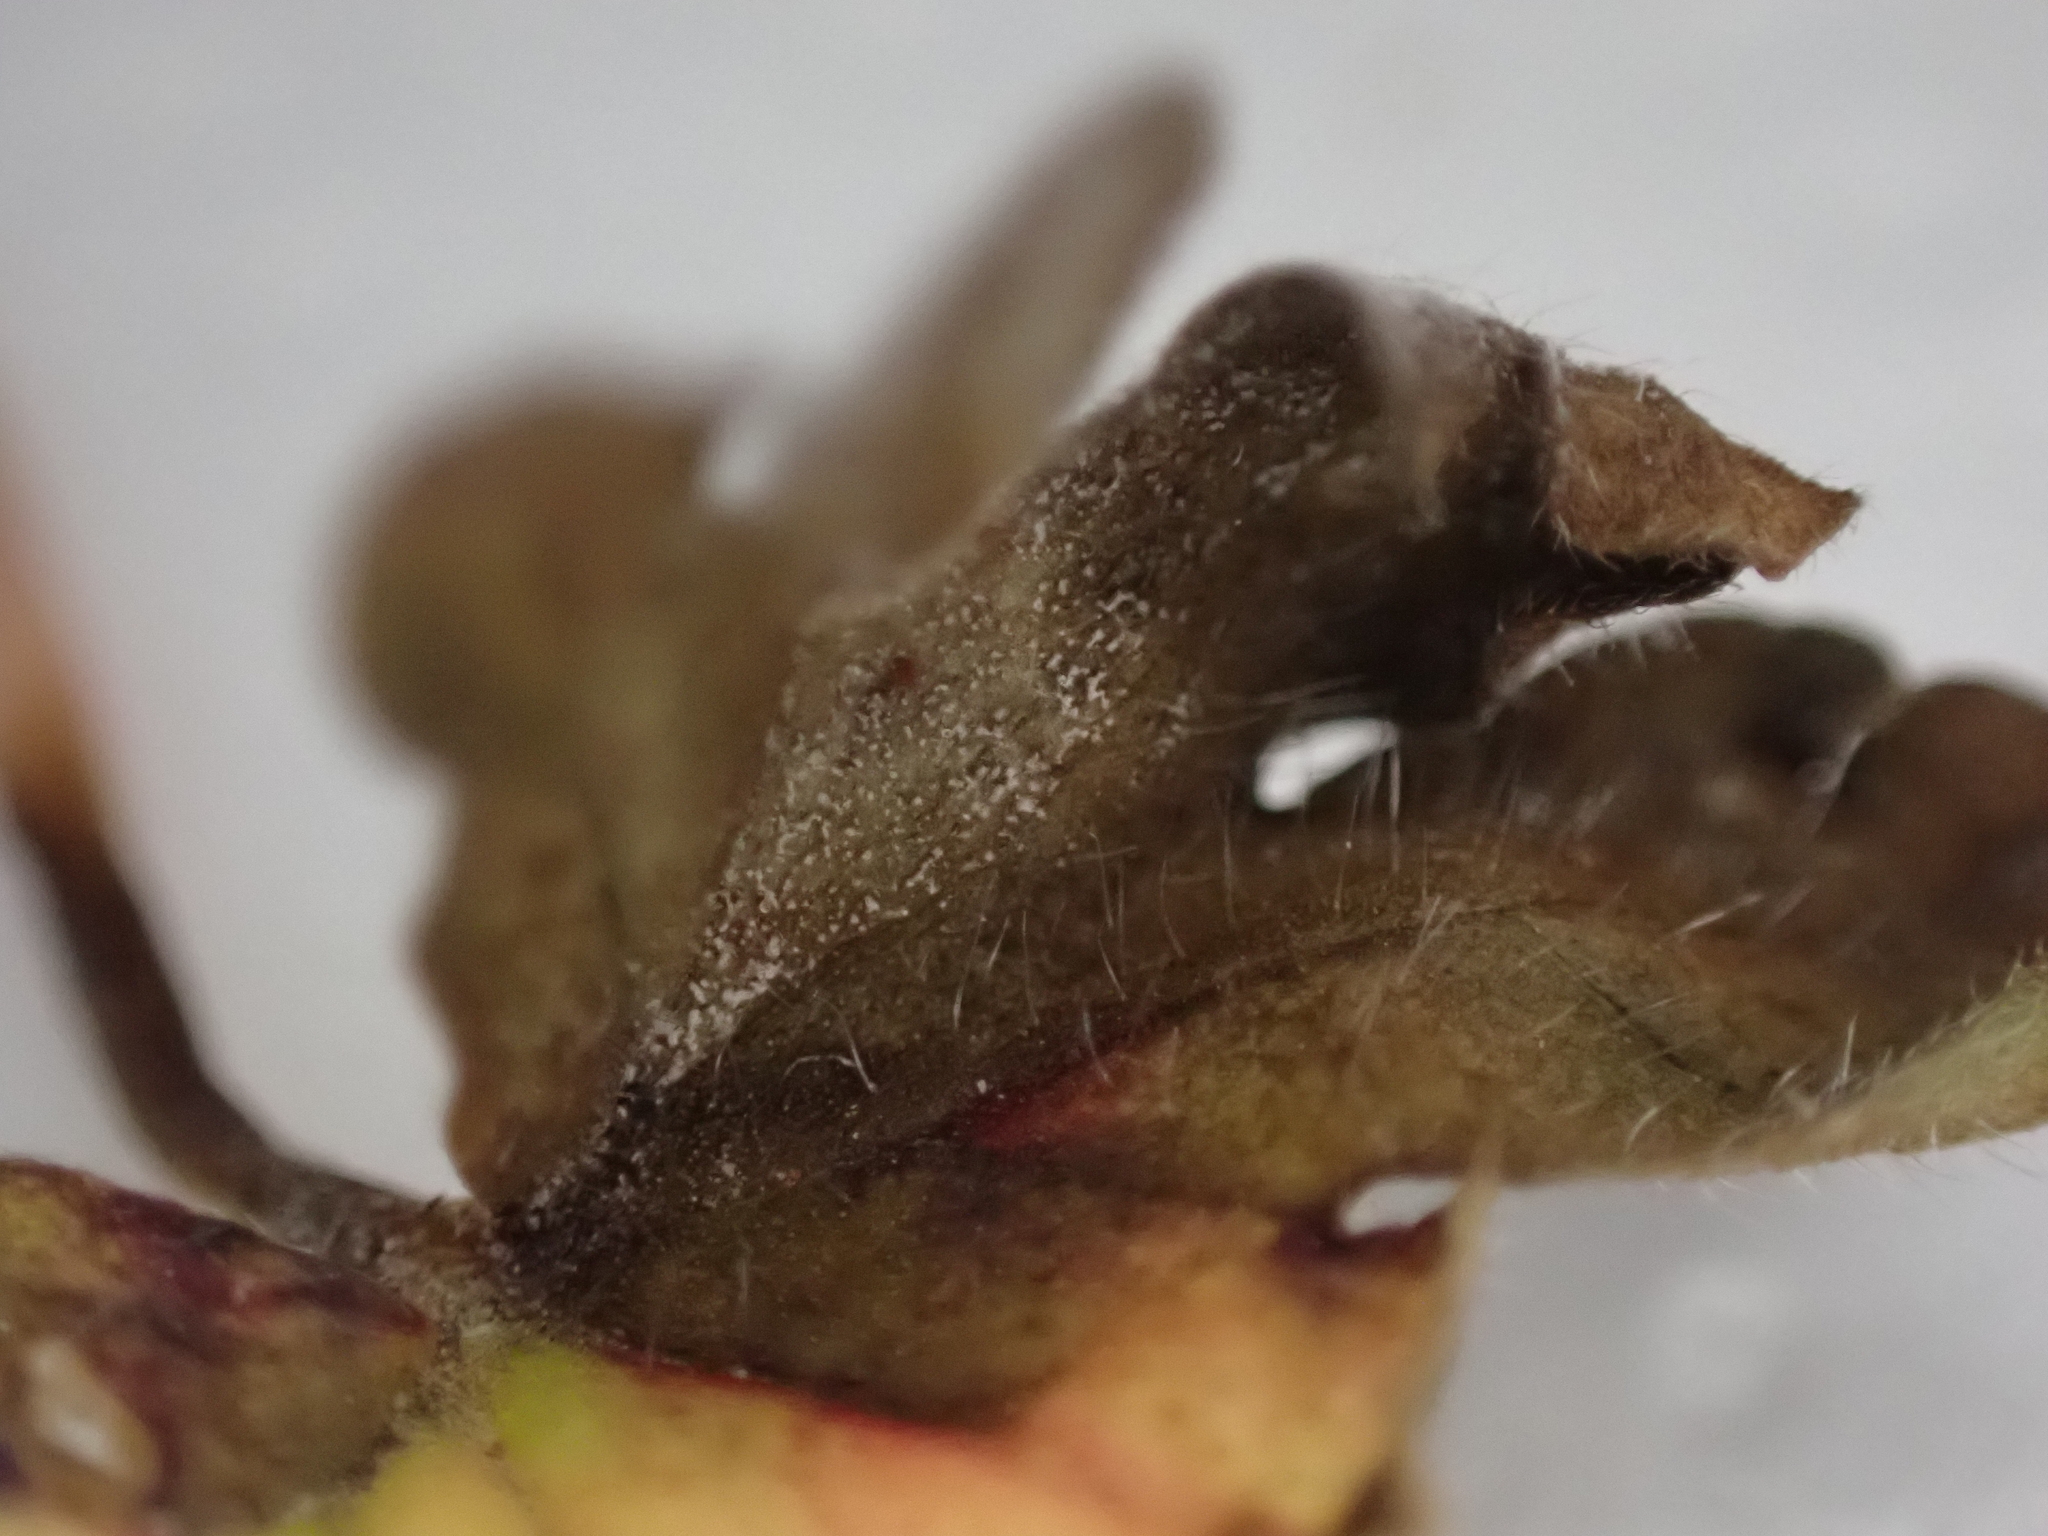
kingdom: Fungi
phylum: Ascomycota
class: Dothideomycetes
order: Mycosphaerellales
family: Mycosphaerellaceae
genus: Ramularia
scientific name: Ramularia geranii
